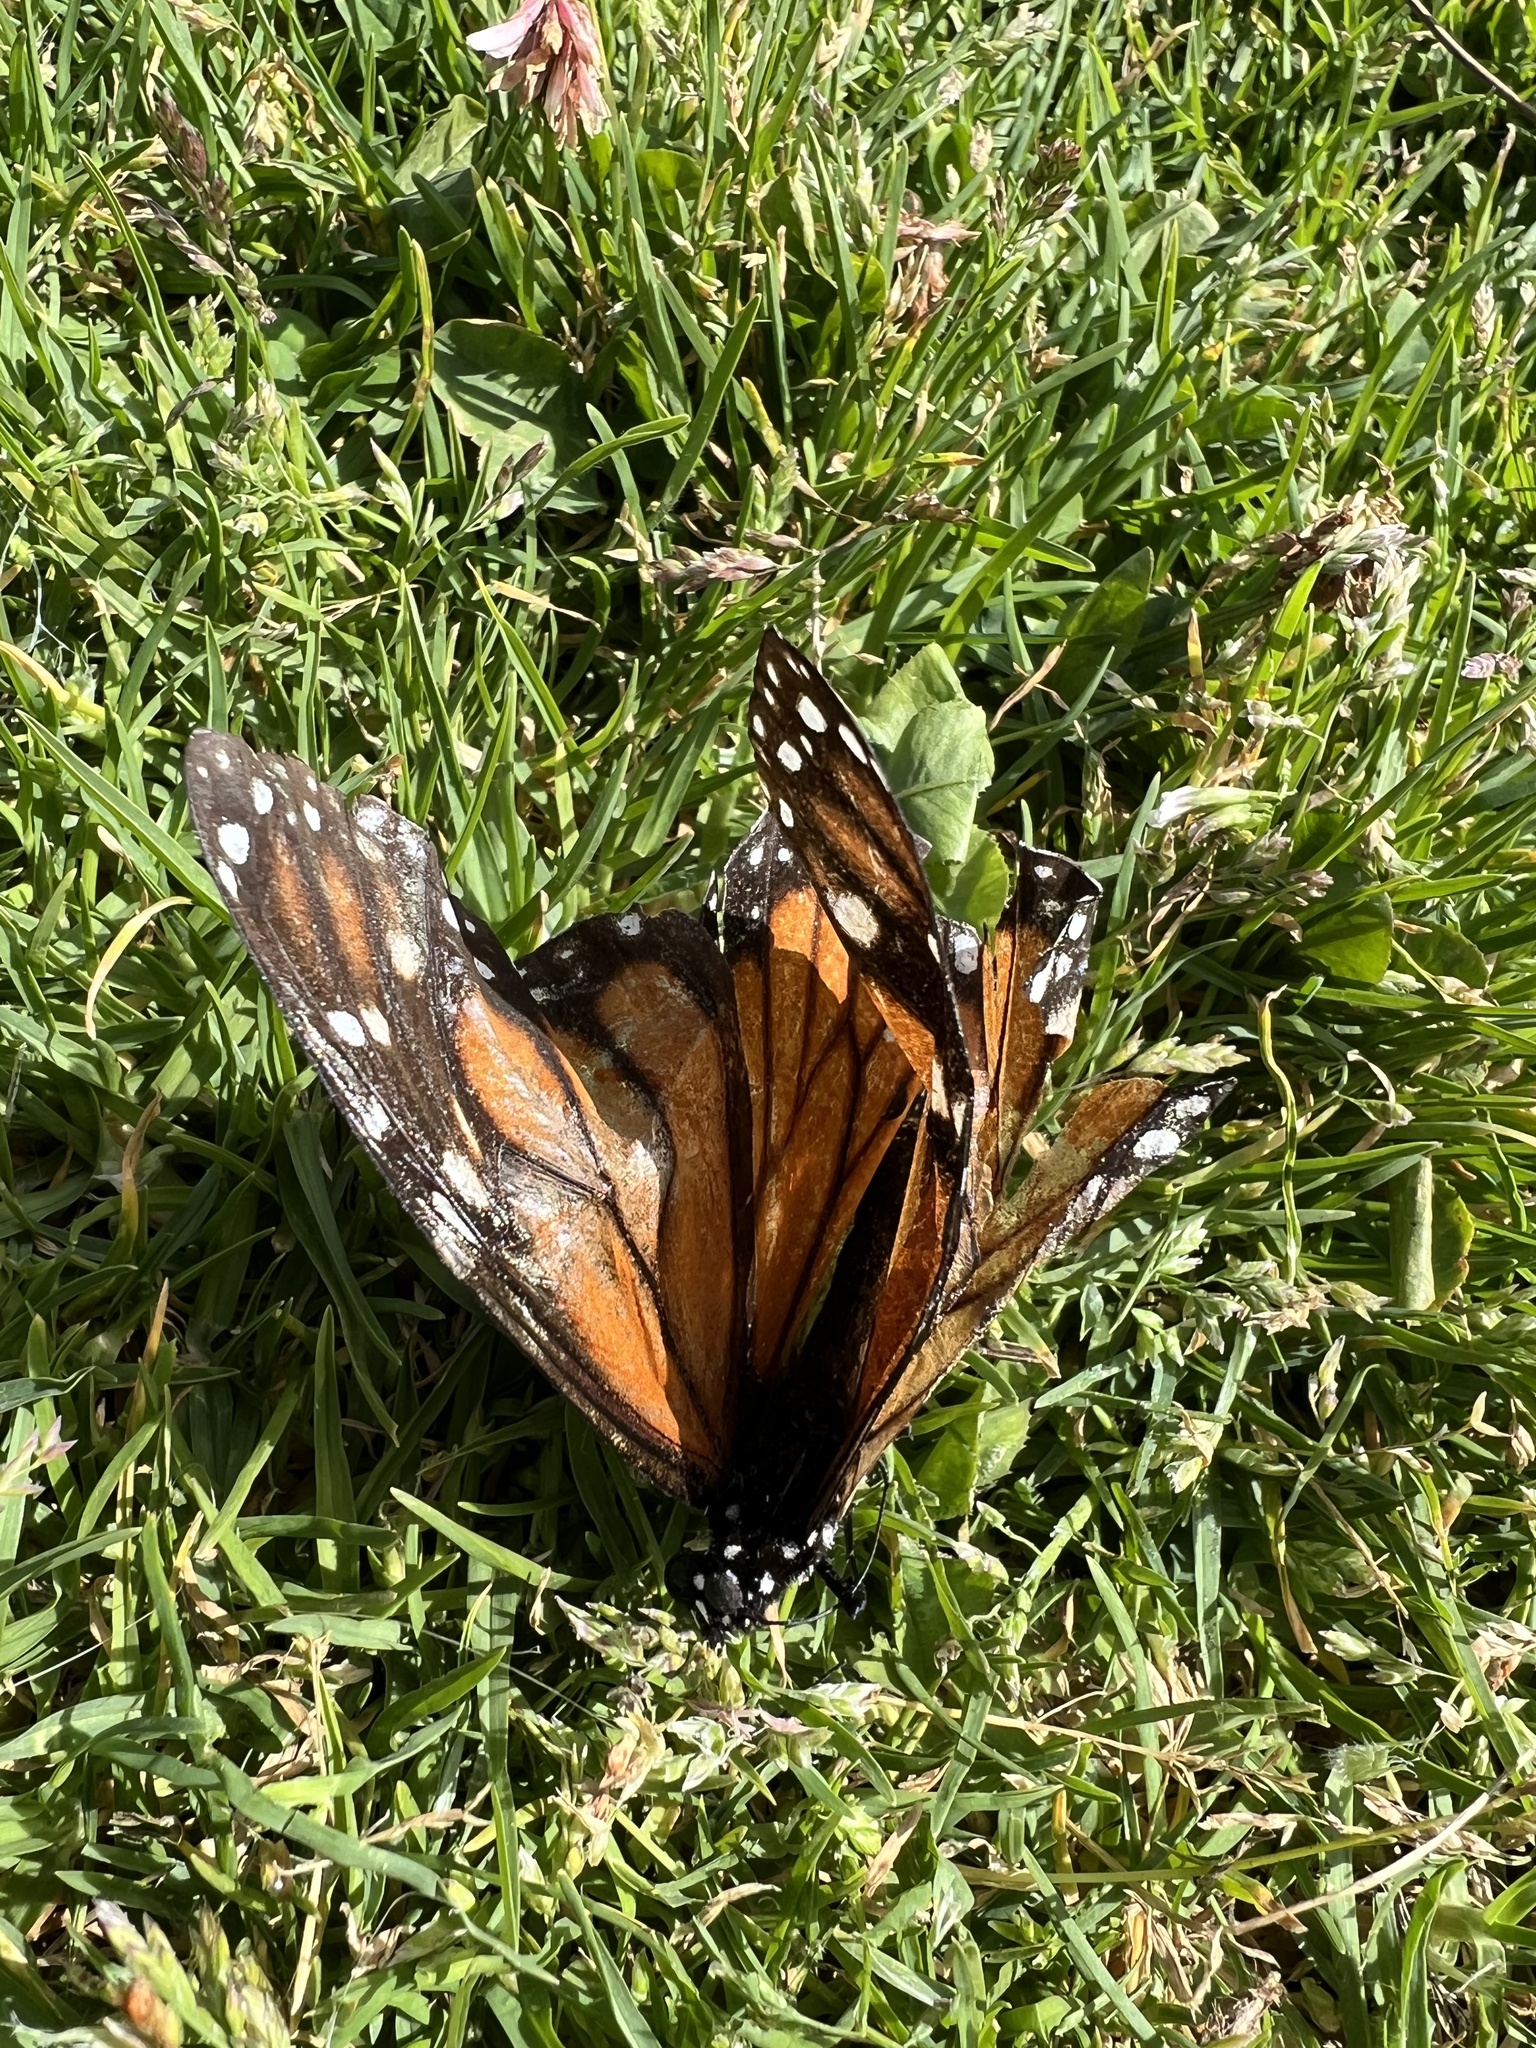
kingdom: Animalia
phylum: Arthropoda
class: Insecta
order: Lepidoptera
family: Nymphalidae
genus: Danaus
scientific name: Danaus plexippus
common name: Monarch
